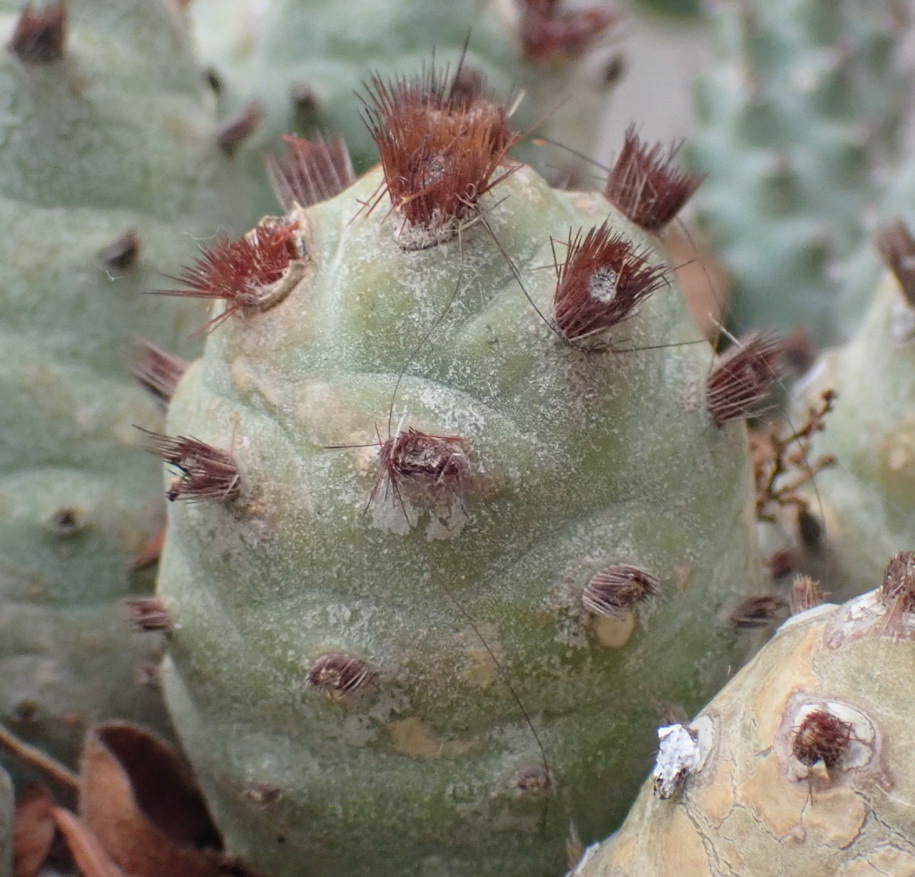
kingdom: Plantae
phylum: Tracheophyta
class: Magnoliopsida
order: Caryophyllales
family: Cactaceae
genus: Tephrocactus
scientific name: Tephrocactus articulatus
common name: Paper cactus
